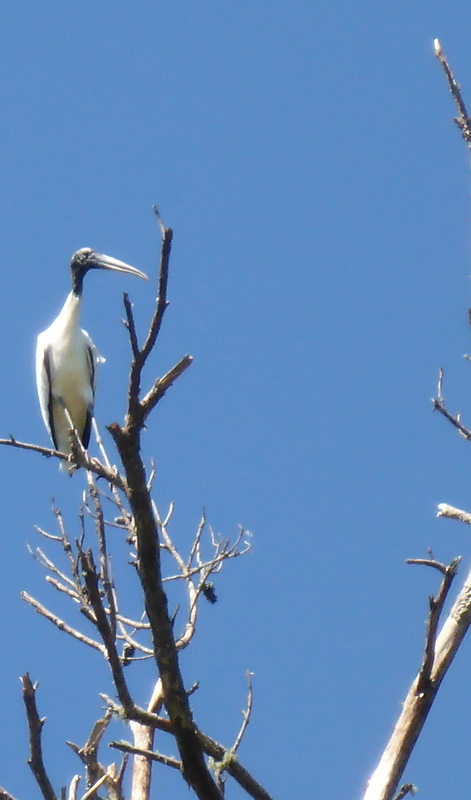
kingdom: Animalia
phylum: Chordata
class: Aves
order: Ciconiiformes
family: Ciconiidae
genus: Mycteria
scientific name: Mycteria americana
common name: Wood stork
